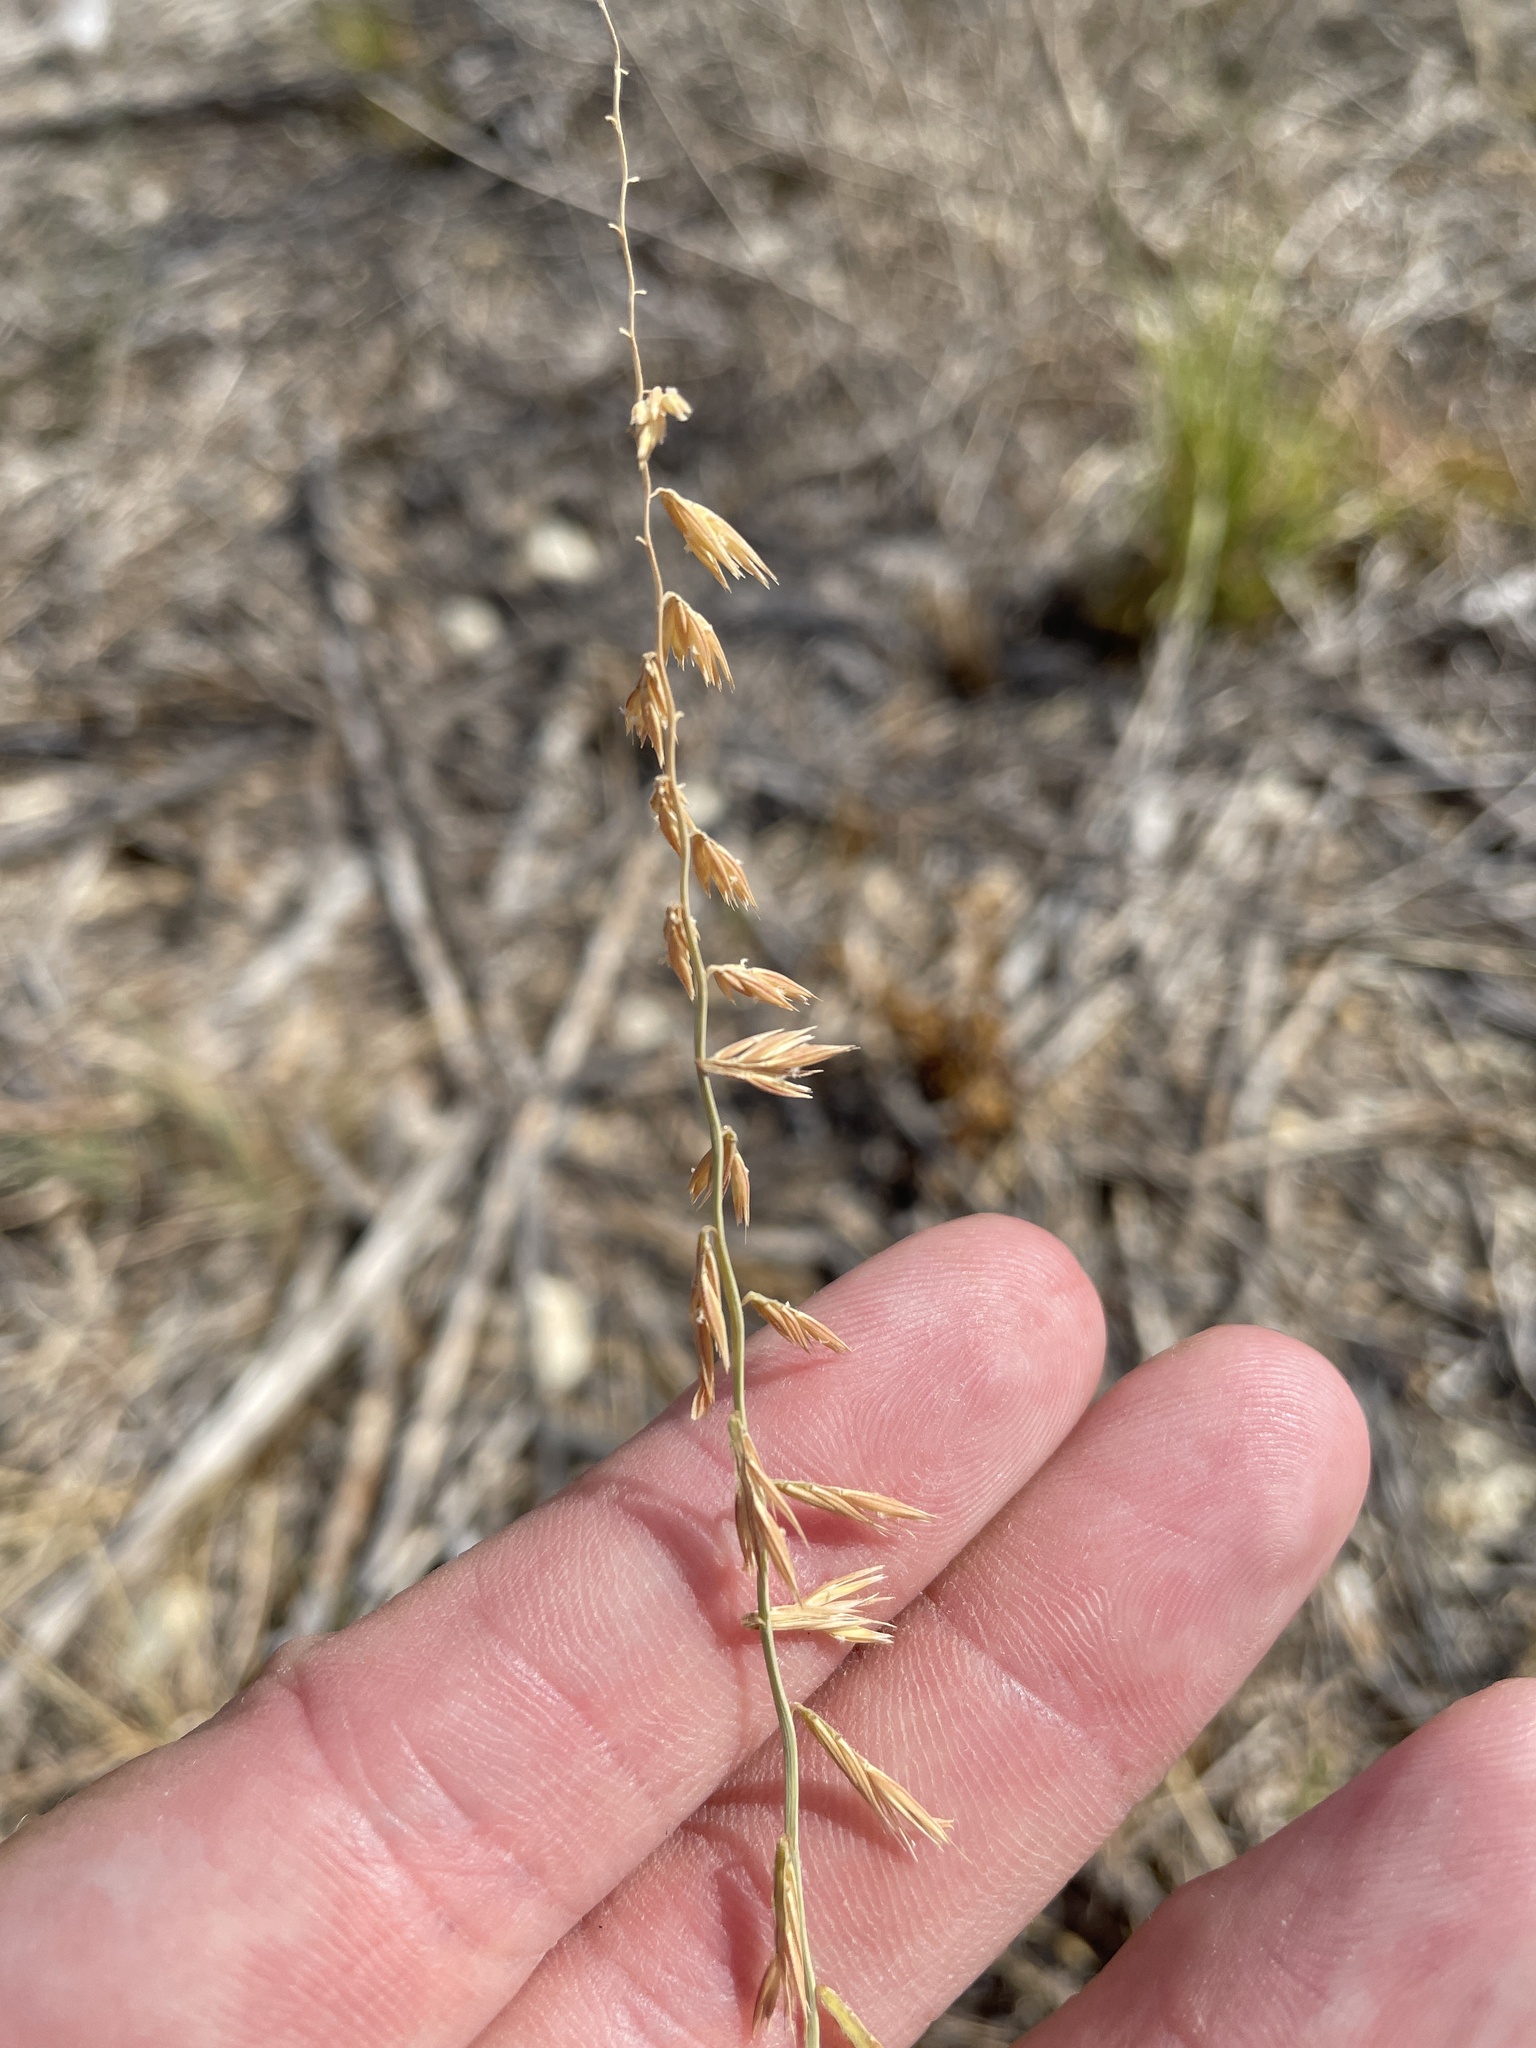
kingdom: Plantae
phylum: Tracheophyta
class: Liliopsida
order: Poales
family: Poaceae
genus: Bouteloua
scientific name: Bouteloua curtipendula
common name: Side-oats grama
